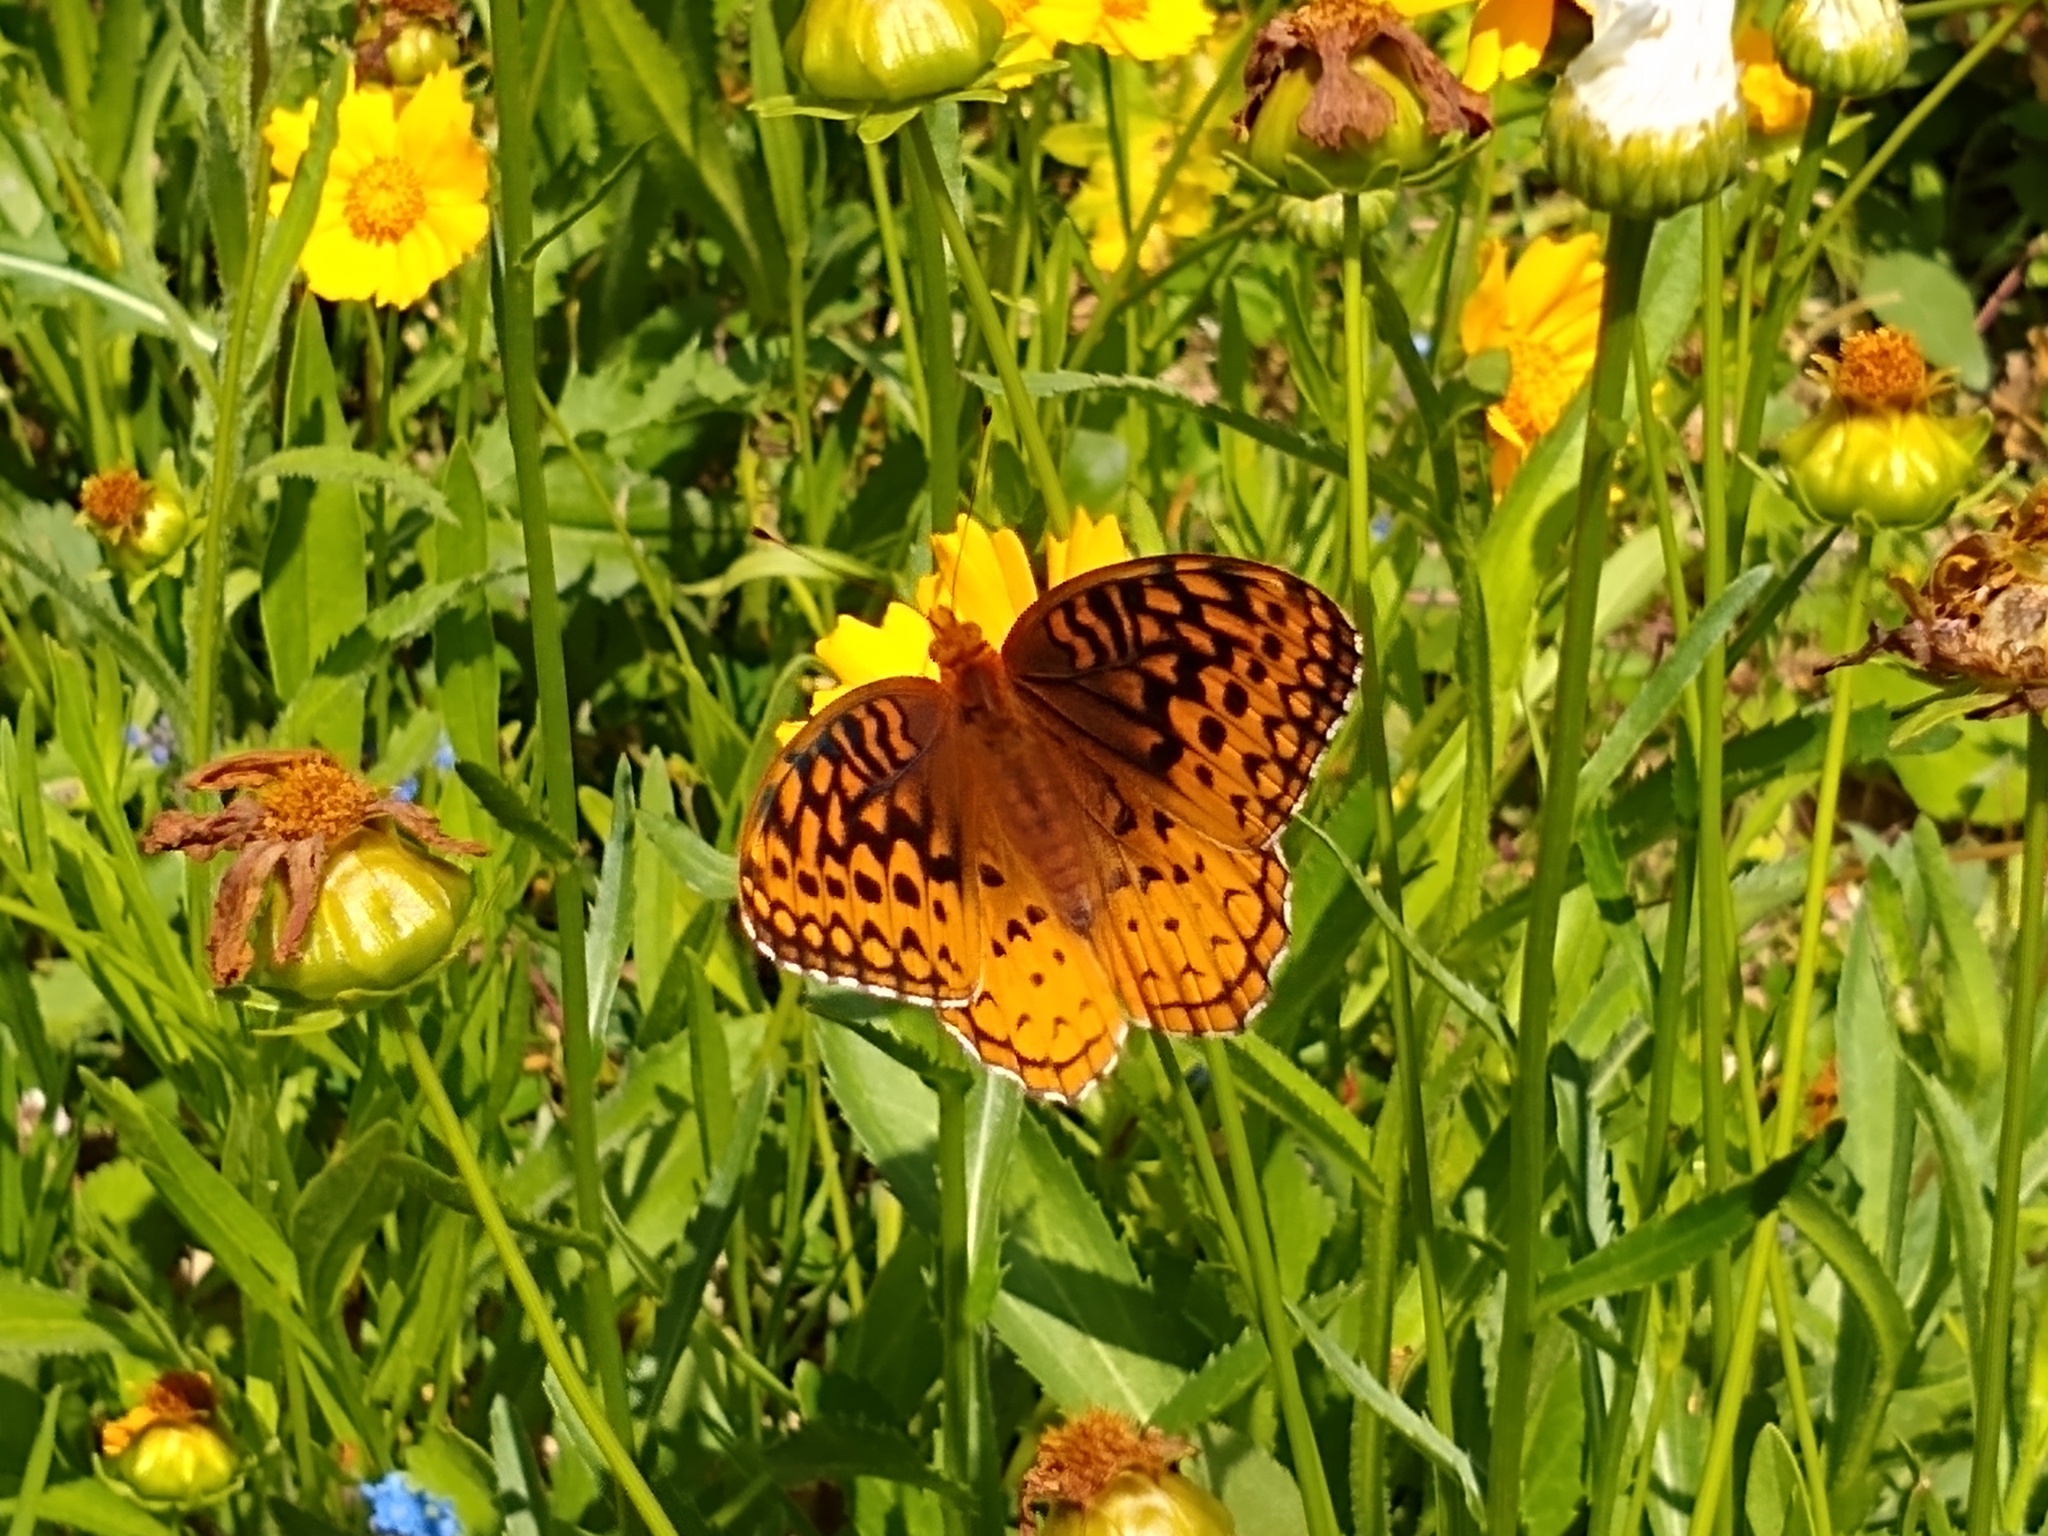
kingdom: Animalia
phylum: Arthropoda
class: Insecta
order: Lepidoptera
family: Nymphalidae
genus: Speyeria
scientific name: Speyeria cybele
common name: Great spangled fritillary
